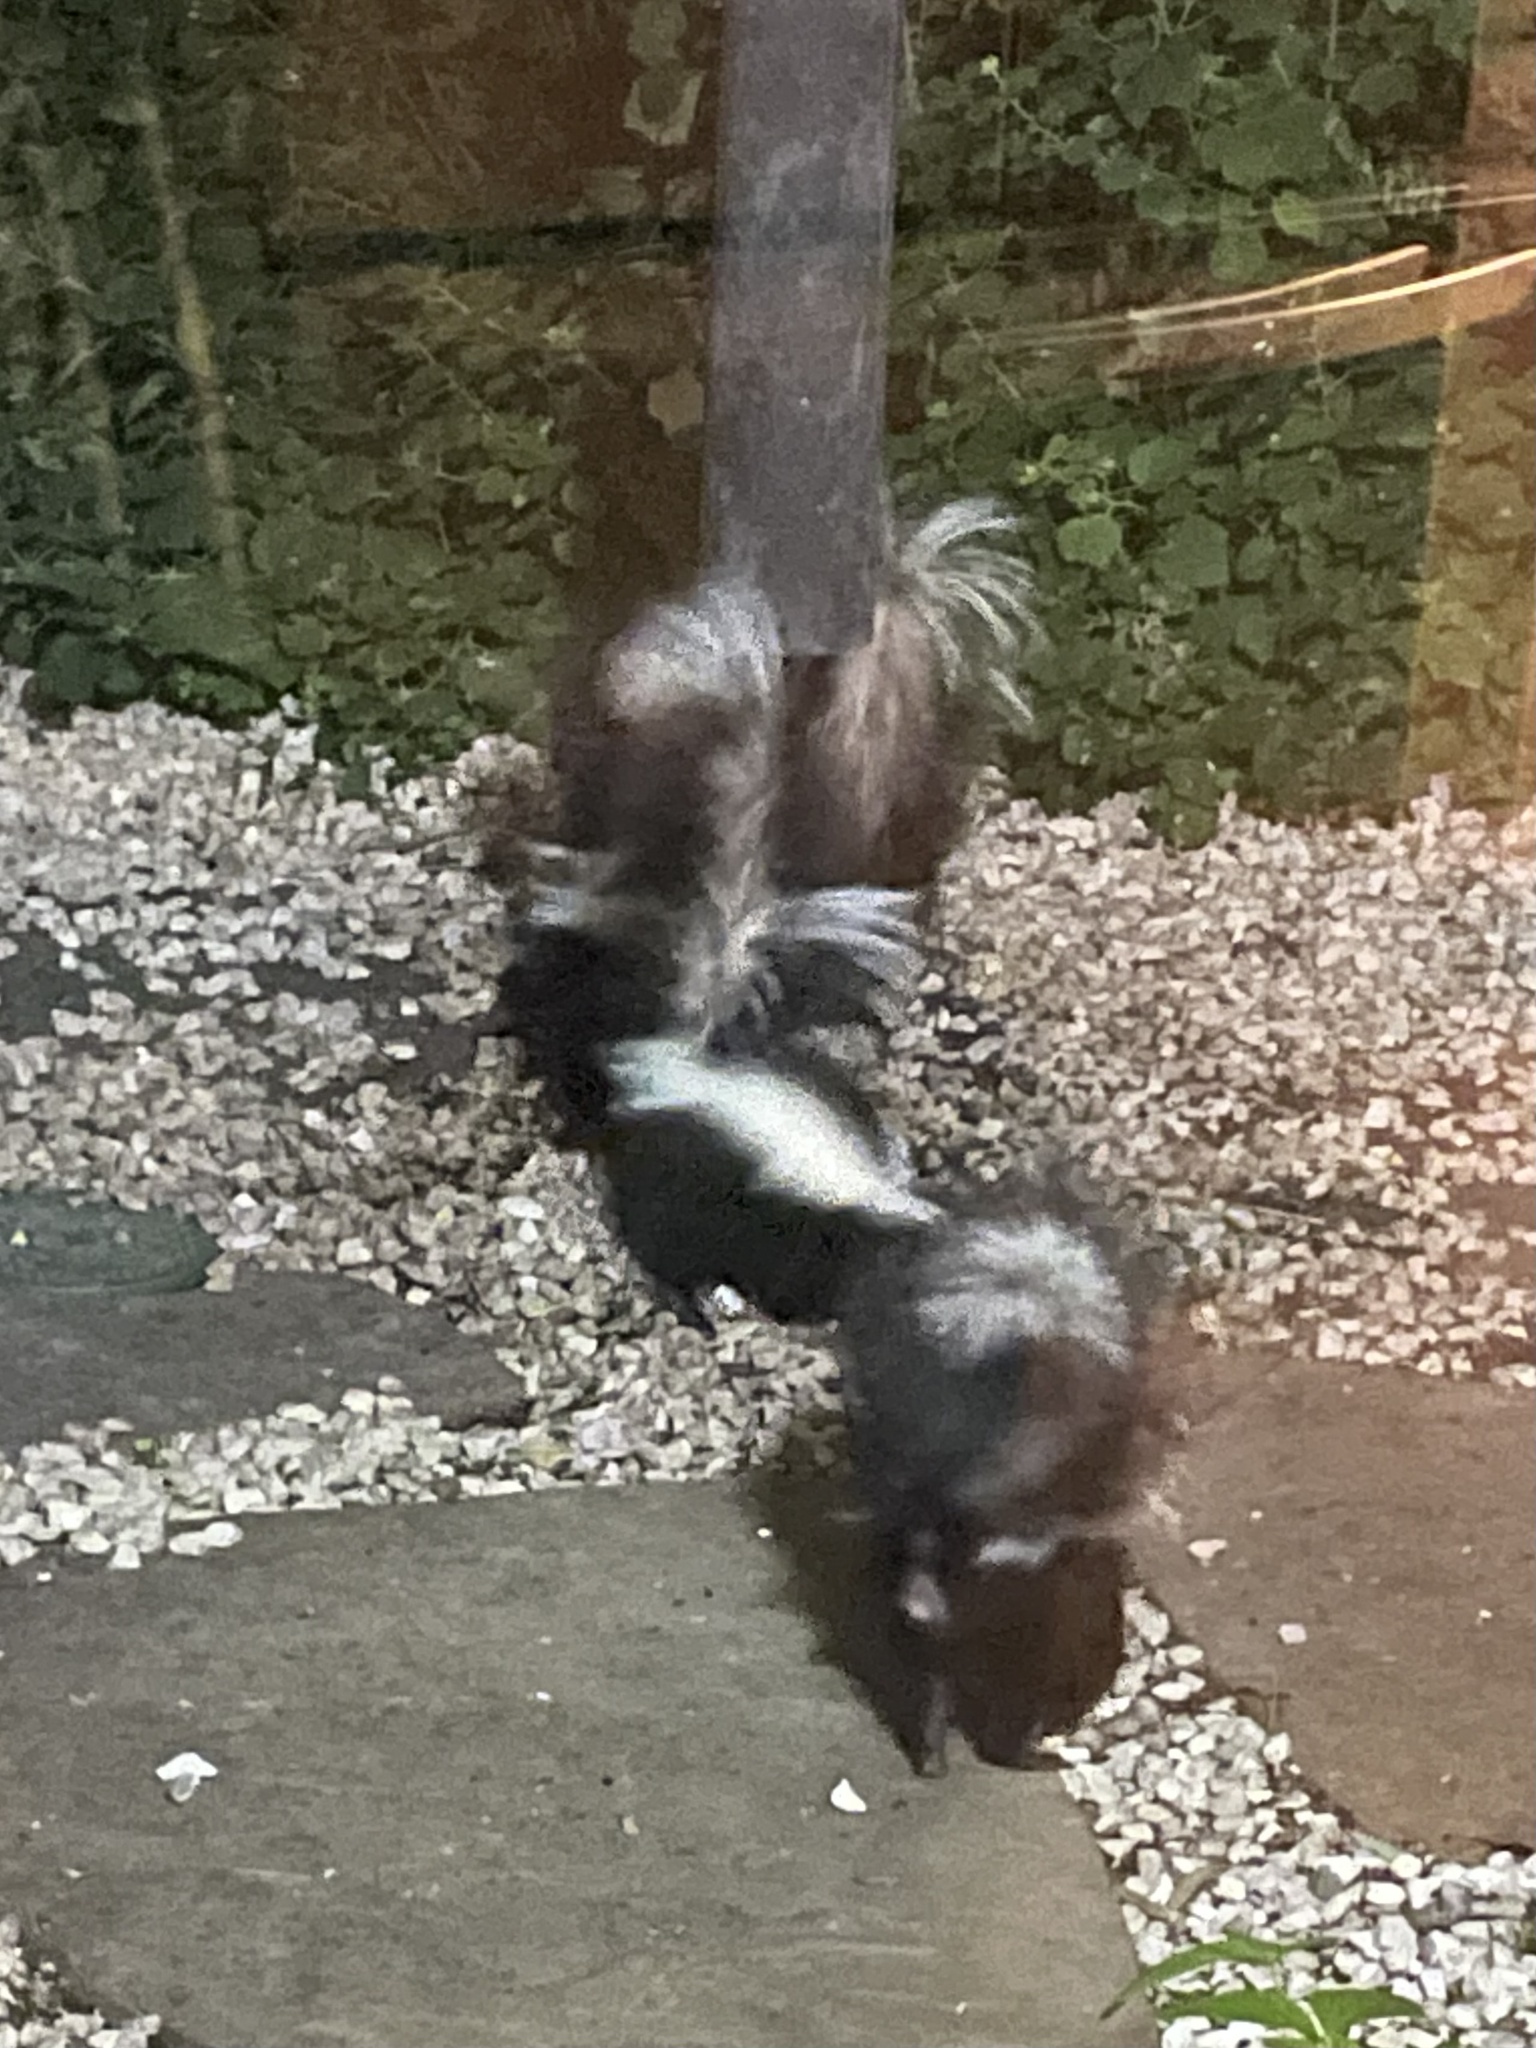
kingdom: Animalia
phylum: Chordata
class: Mammalia
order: Carnivora
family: Mephitidae
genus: Mephitis
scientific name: Mephitis mephitis
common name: Striped skunk
